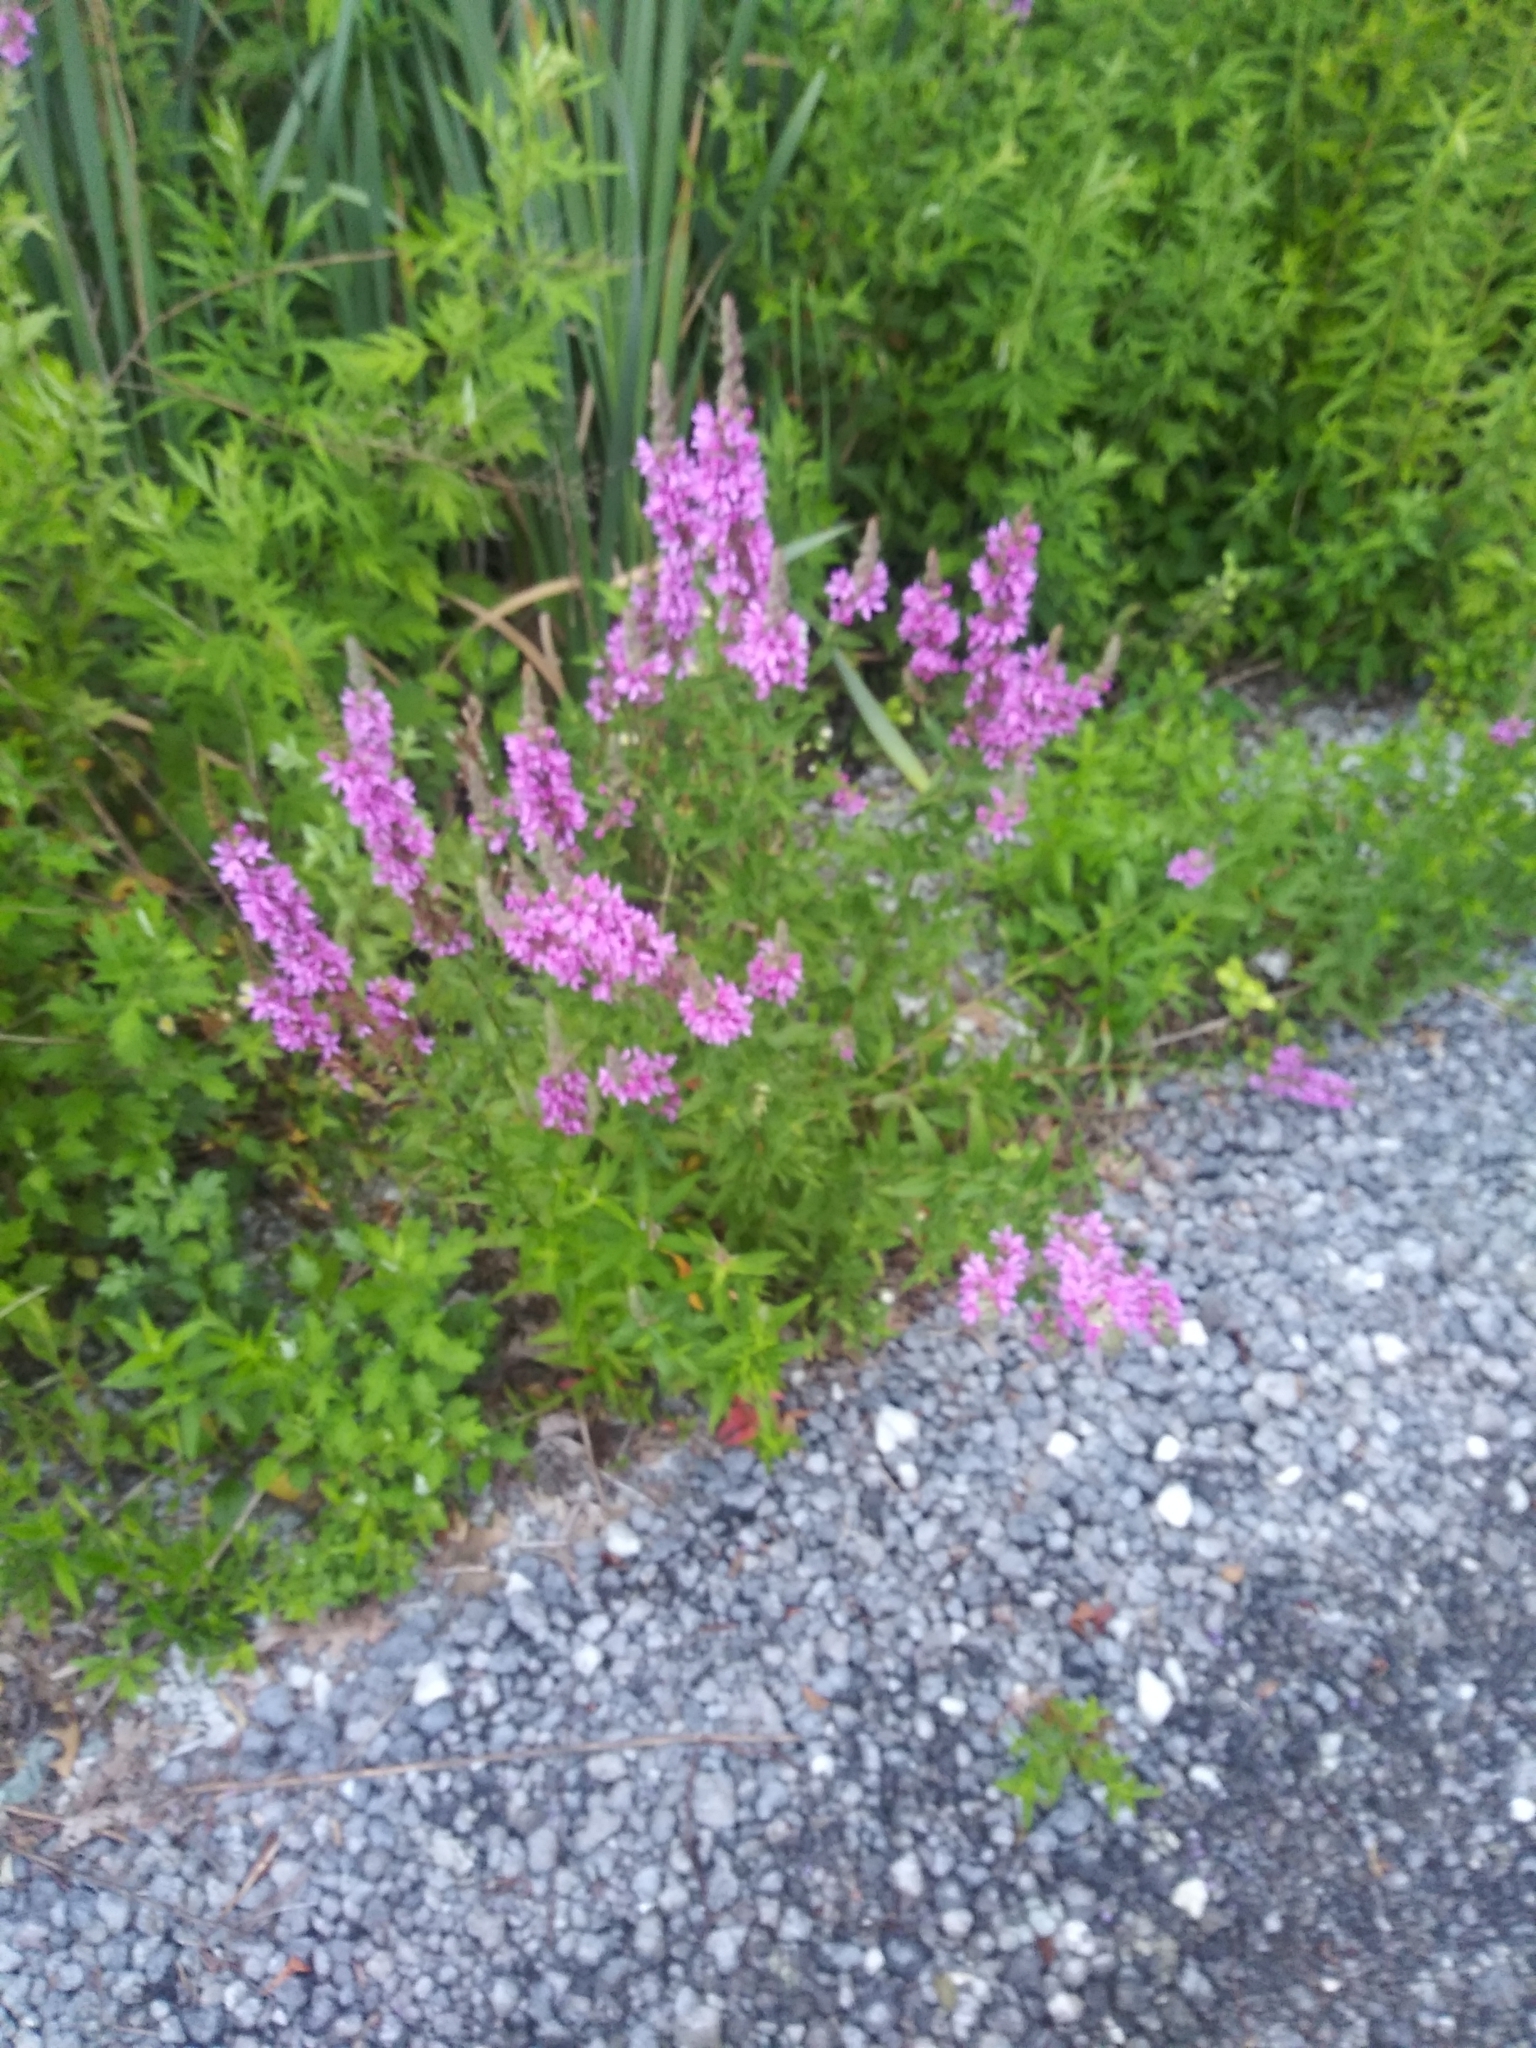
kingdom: Plantae
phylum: Tracheophyta
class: Magnoliopsida
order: Myrtales
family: Lythraceae
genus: Lythrum
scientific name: Lythrum salicaria
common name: Purple loosestrife
